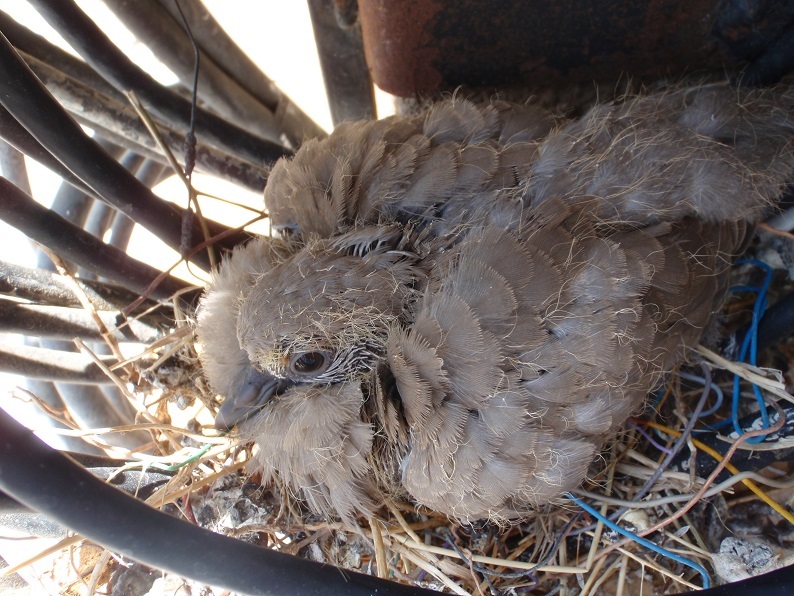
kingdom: Animalia
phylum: Chordata
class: Aves
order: Columbiformes
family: Columbidae
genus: Streptopelia
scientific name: Streptopelia decaocto
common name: Eurasian collared dove
